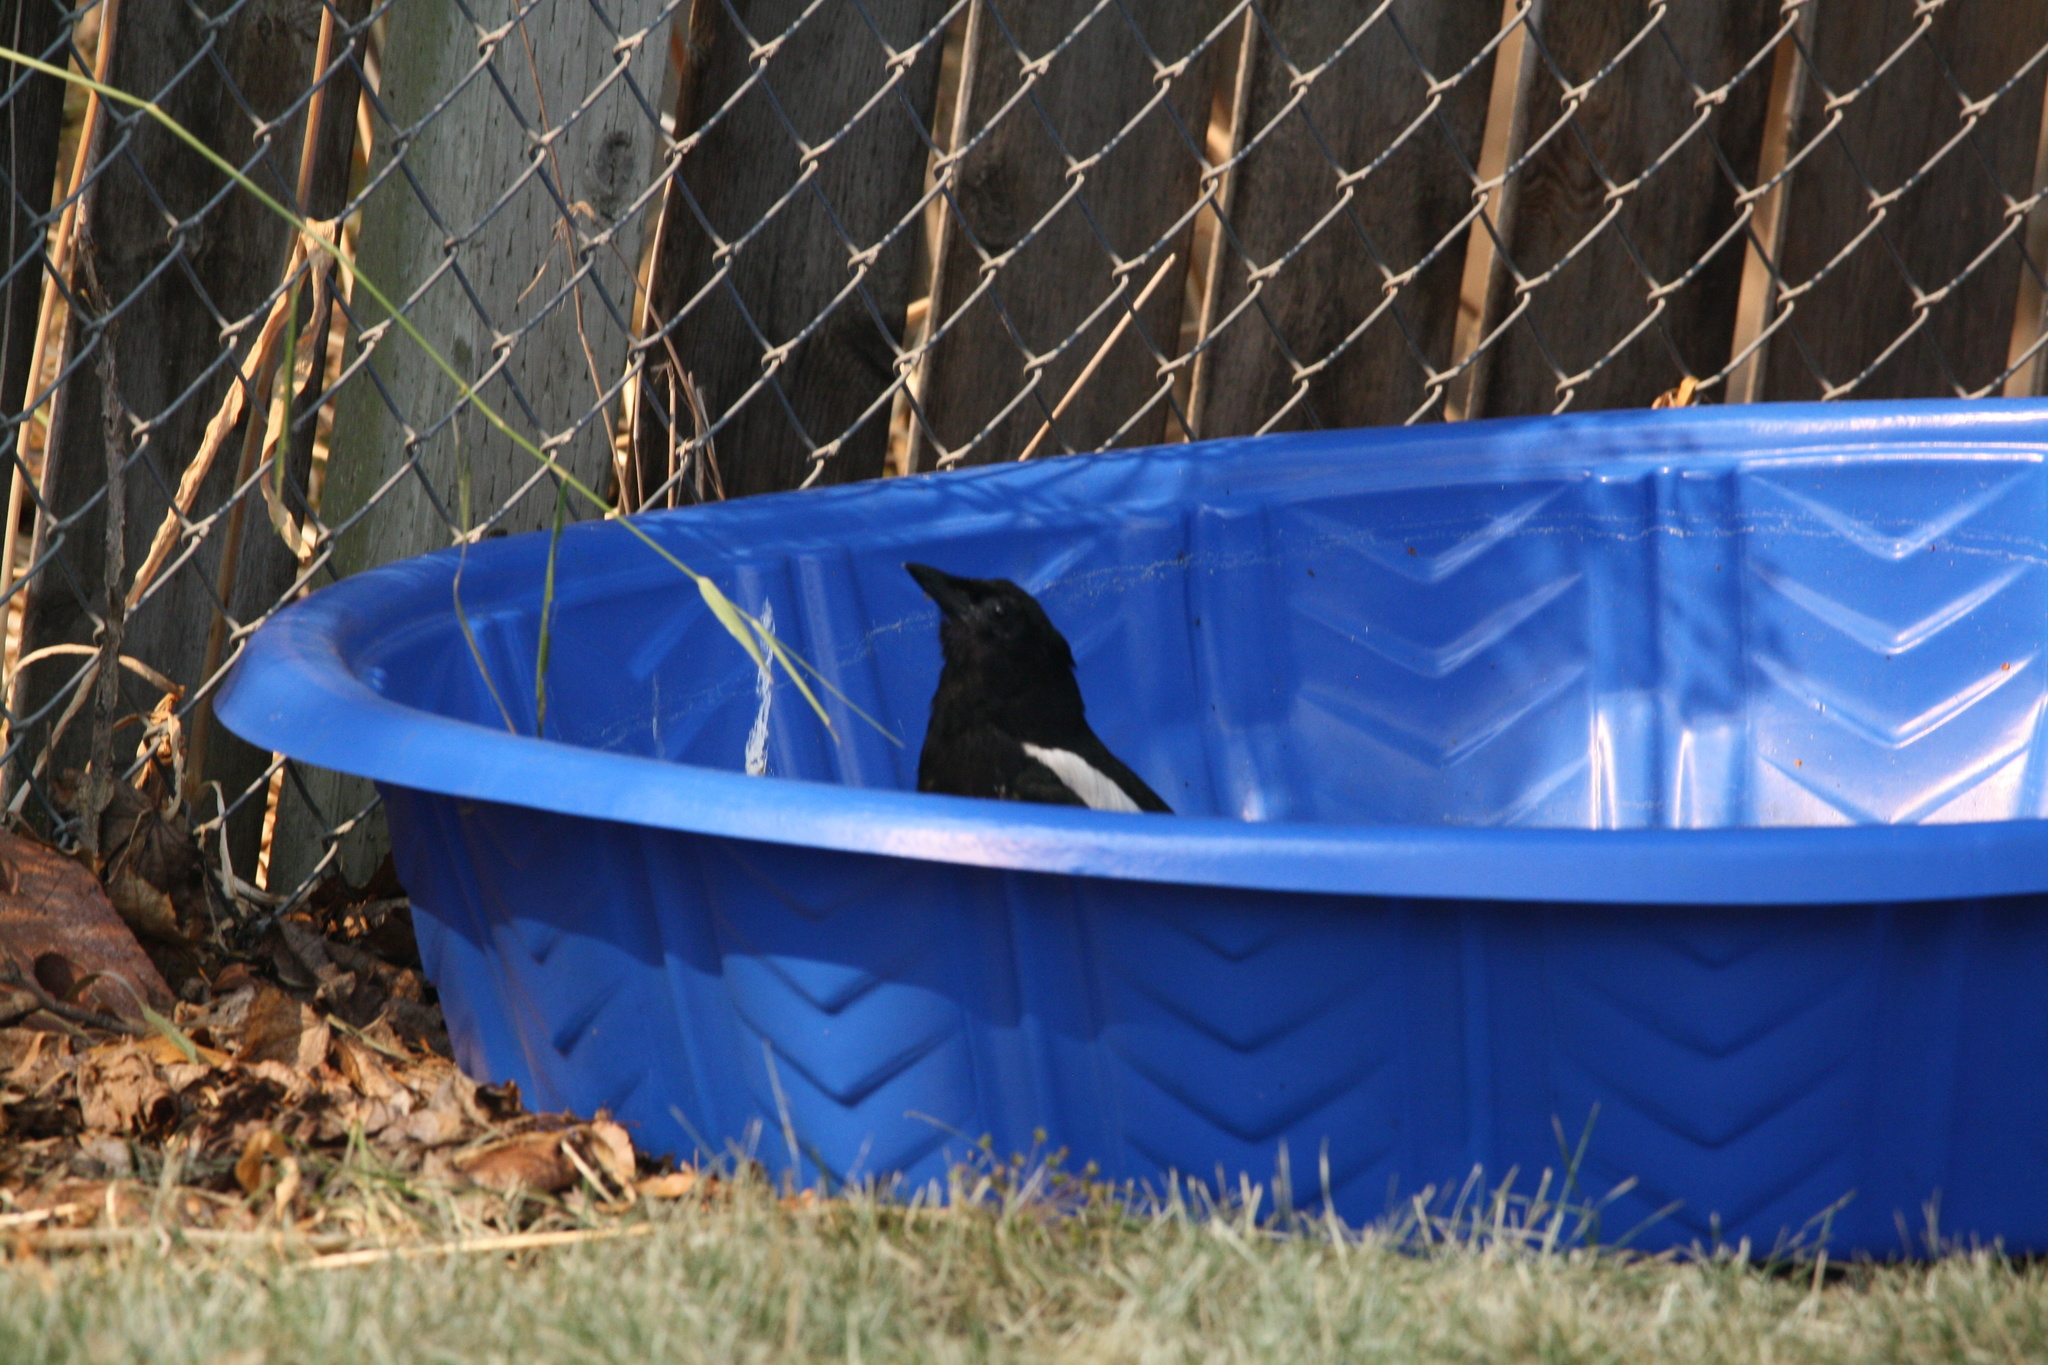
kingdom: Animalia
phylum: Chordata
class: Aves
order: Passeriformes
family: Corvidae
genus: Pica
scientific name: Pica hudsonia
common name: Black-billed magpie
